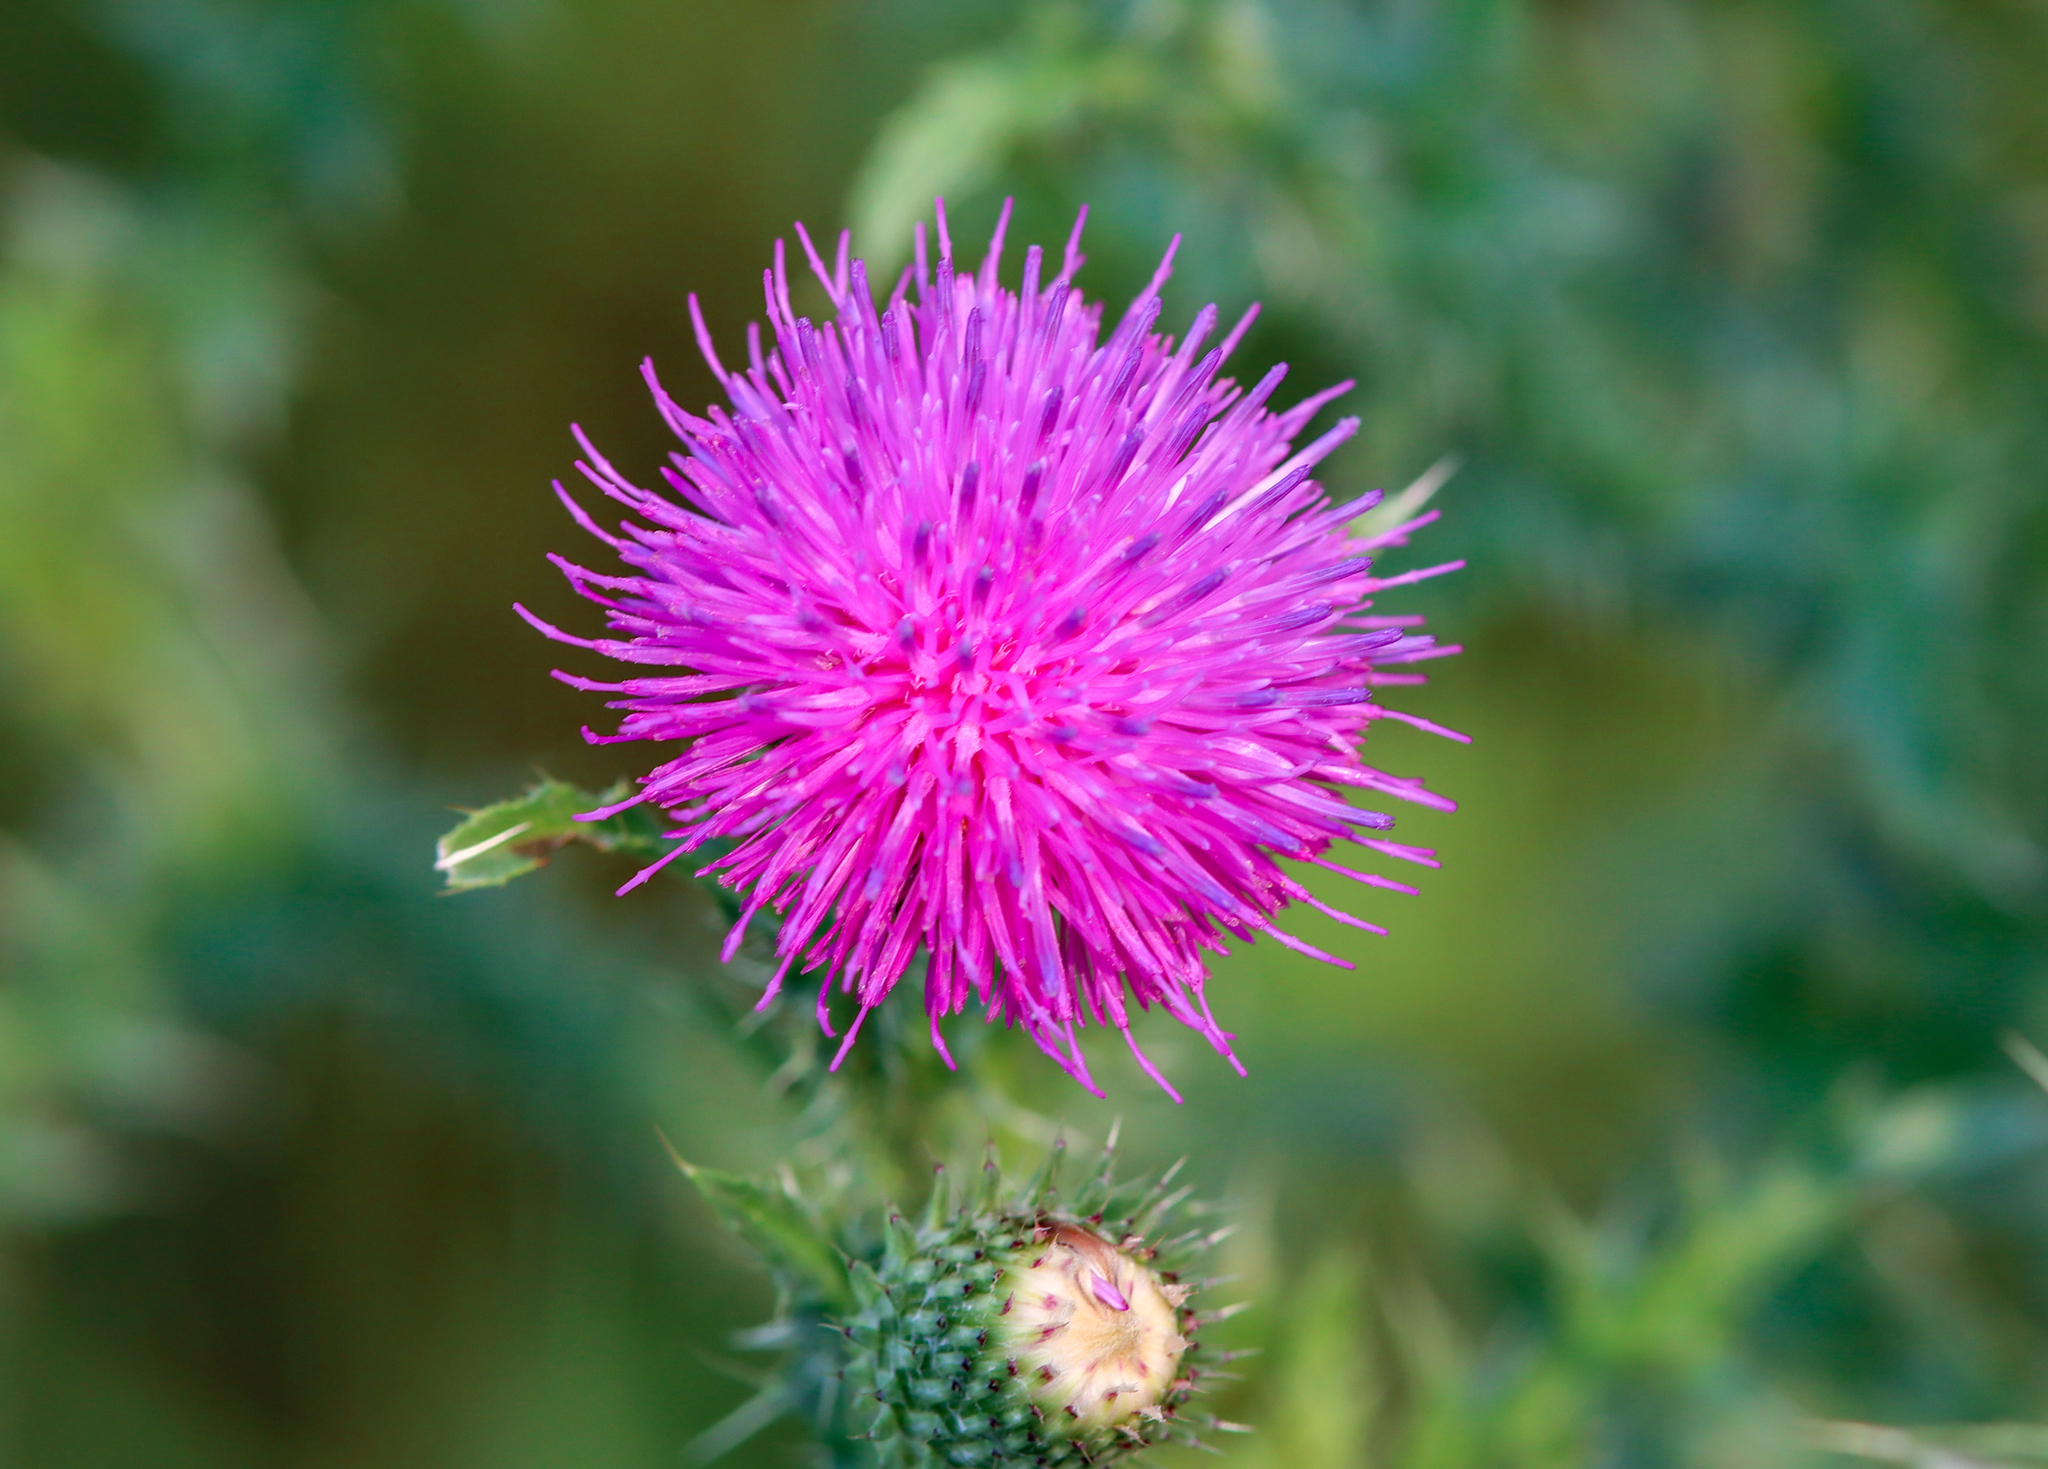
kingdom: Plantae
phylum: Tracheophyta
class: Magnoliopsida
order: Asterales
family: Asteraceae
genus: Carduus
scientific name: Carduus acanthoides
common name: Plumeless thistle
